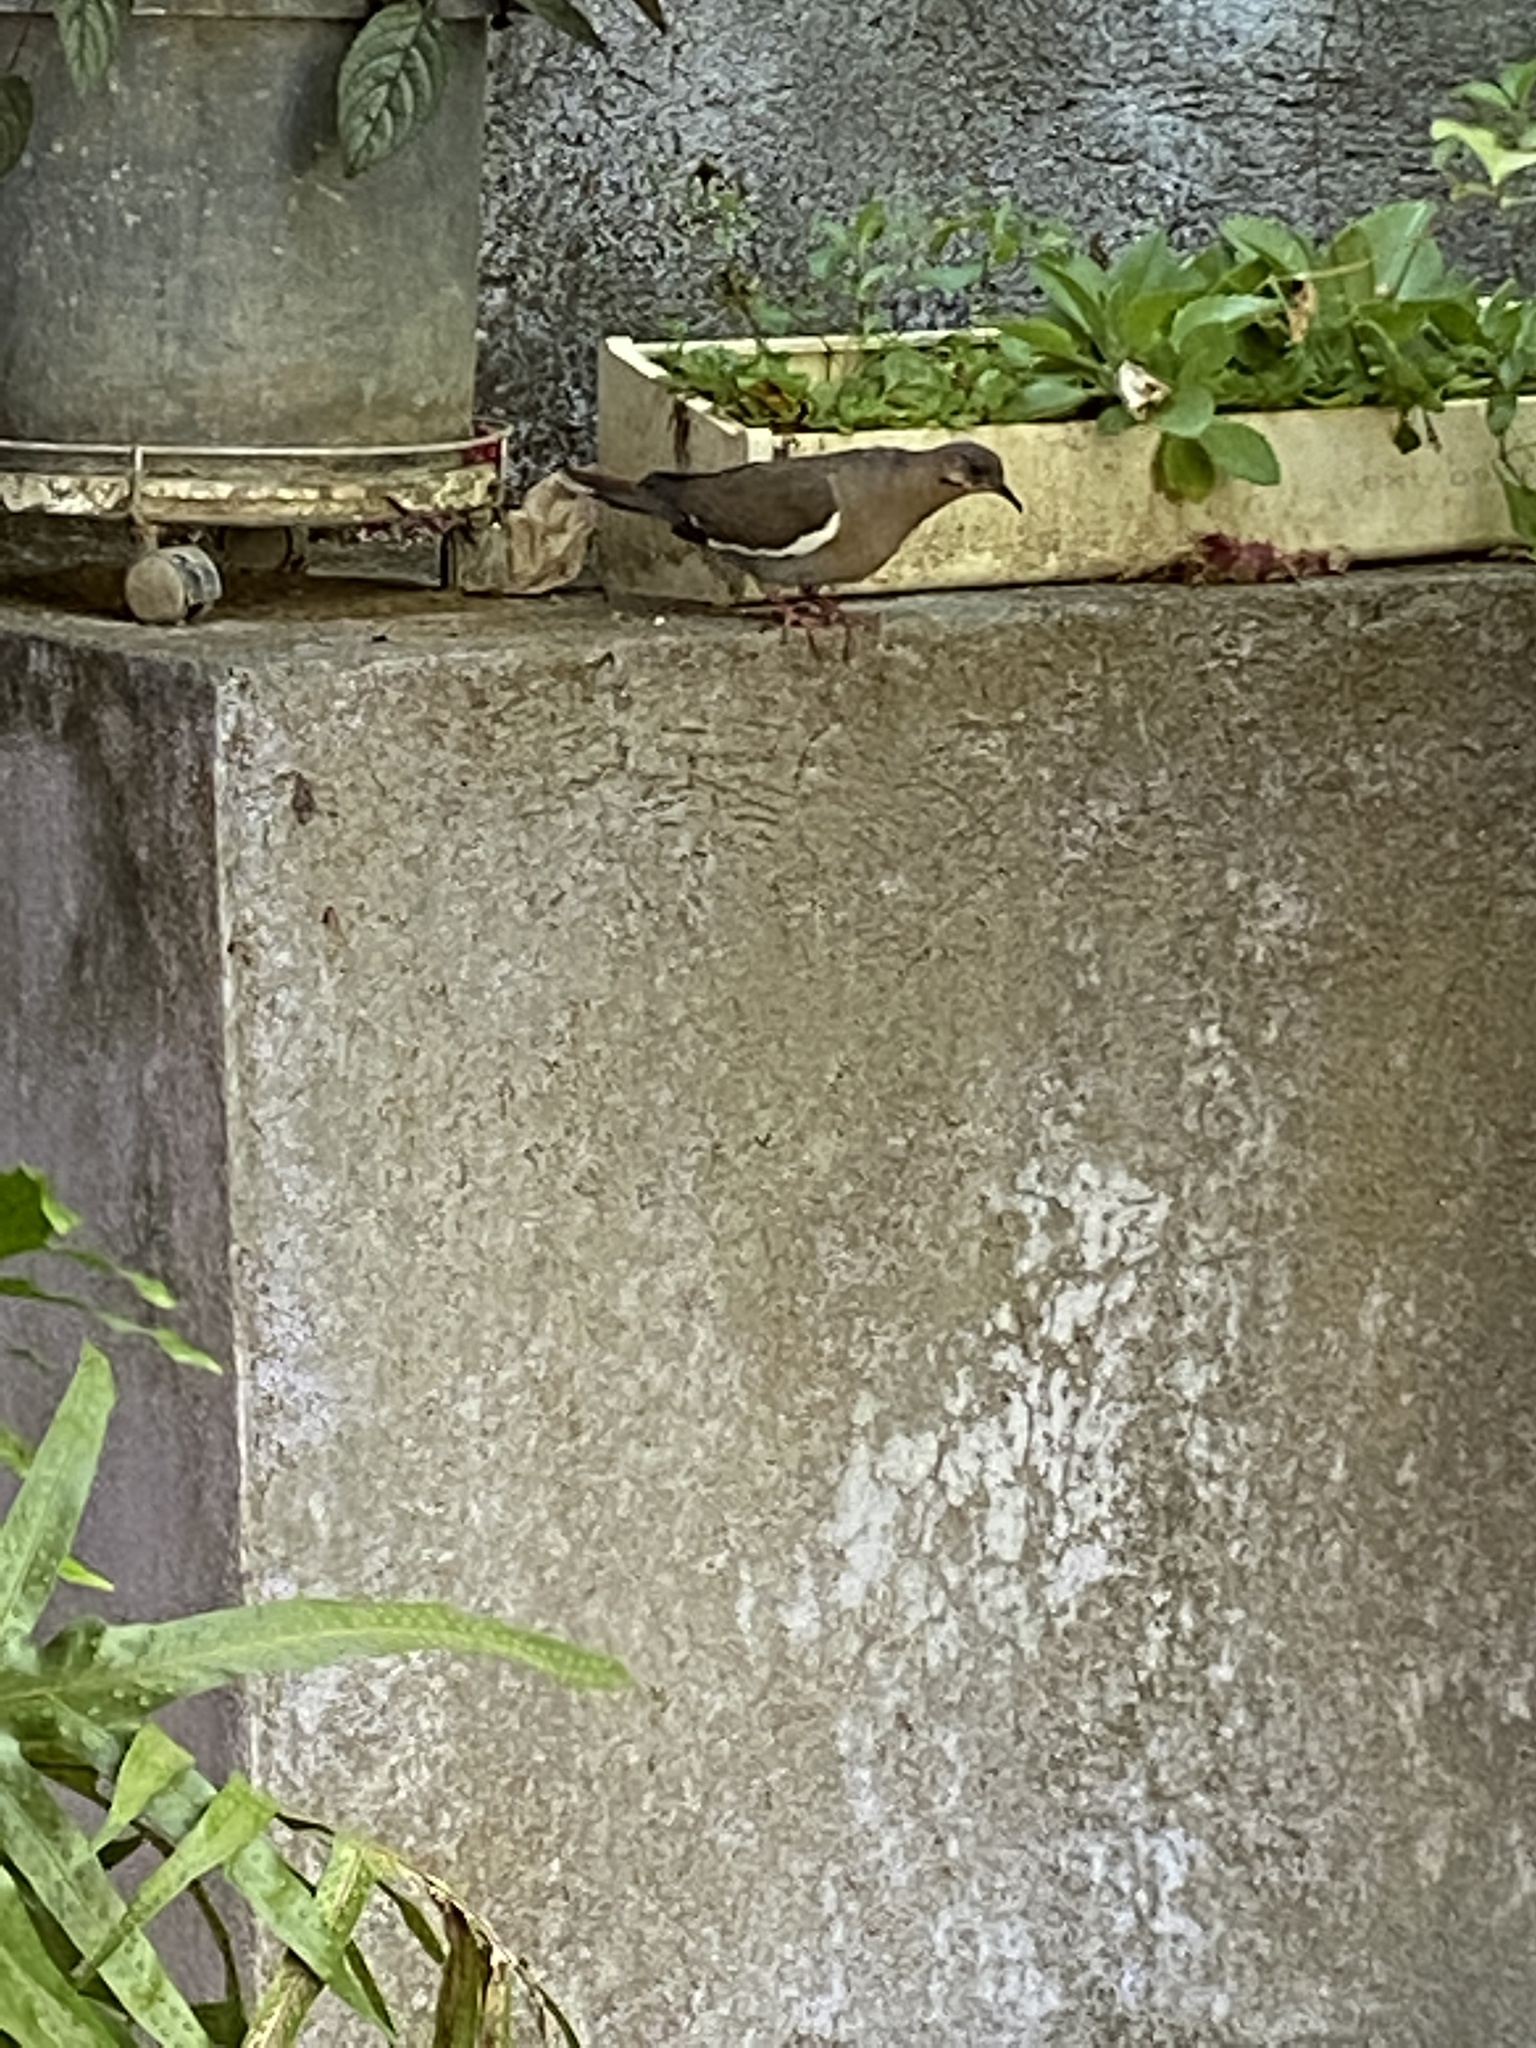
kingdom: Animalia
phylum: Chordata
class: Aves
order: Columbiformes
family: Columbidae
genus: Zenaida
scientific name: Zenaida asiatica
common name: White-winged dove
